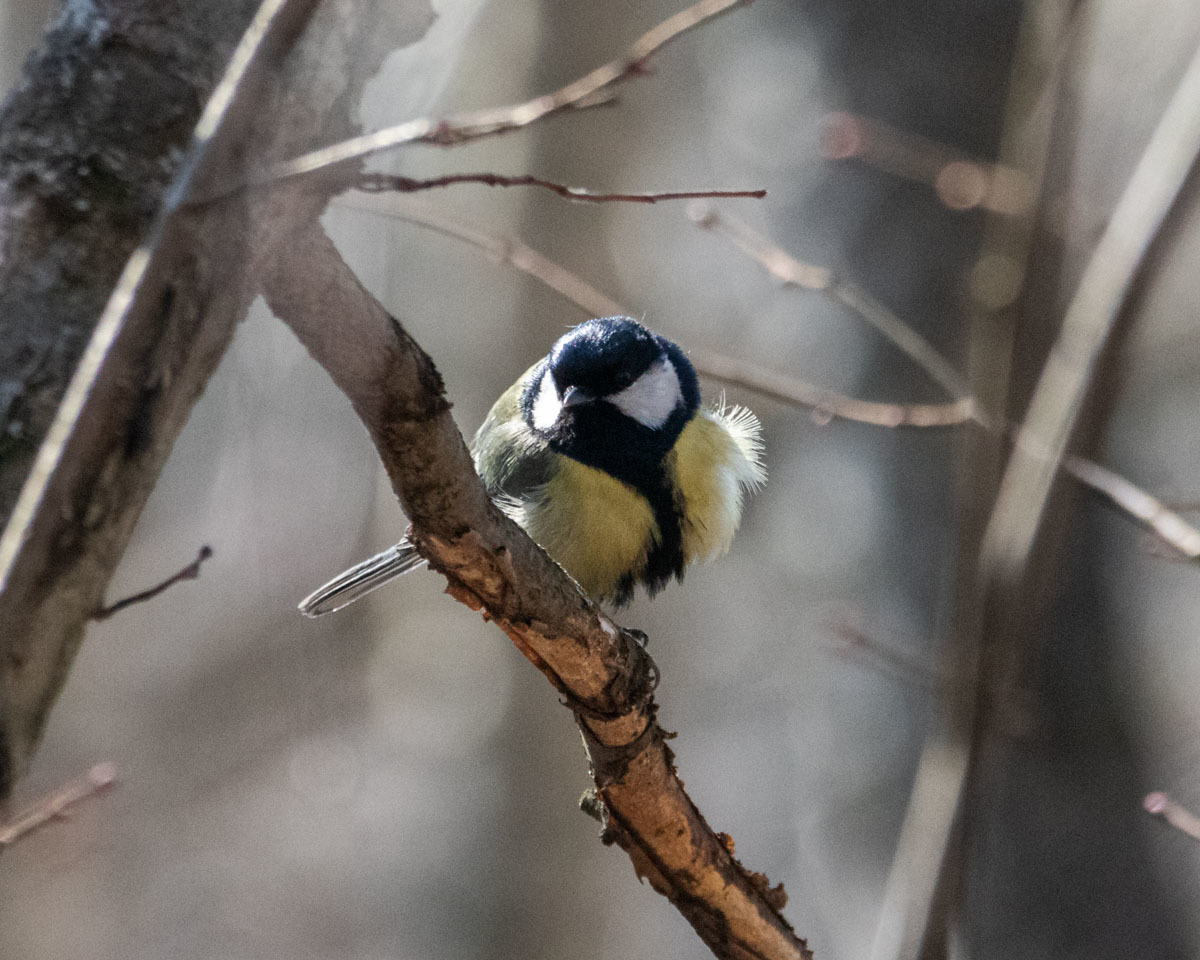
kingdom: Animalia
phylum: Chordata
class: Aves
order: Passeriformes
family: Paridae
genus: Parus
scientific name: Parus major
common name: Great tit
